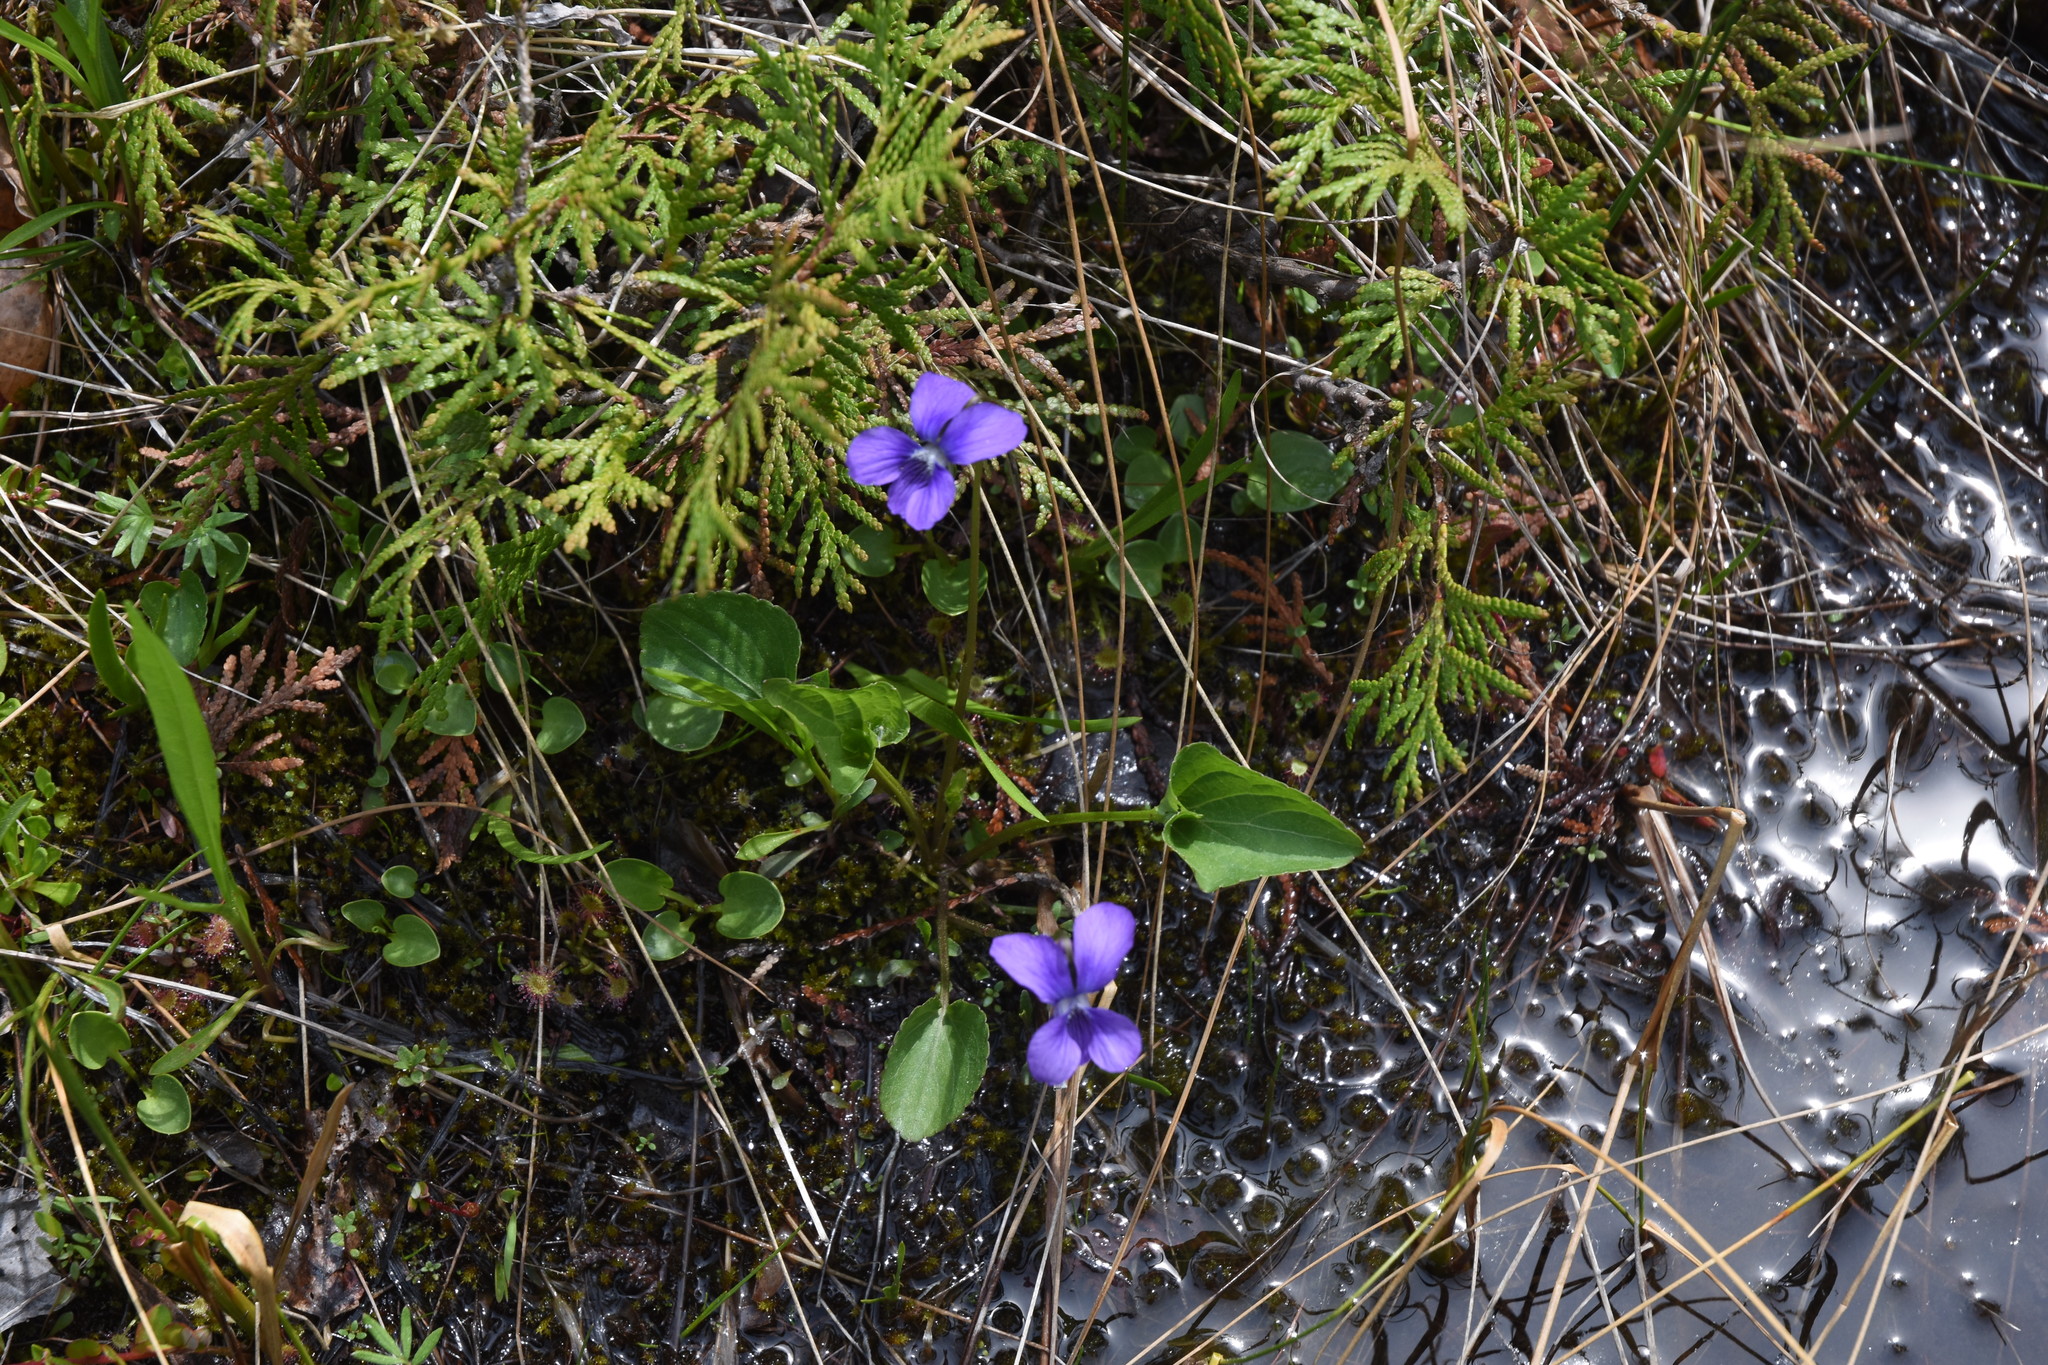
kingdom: Plantae
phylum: Tracheophyta
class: Magnoliopsida
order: Malpighiales
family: Violaceae
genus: Viola
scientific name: Viola cucullata
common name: Marsh blue violet
